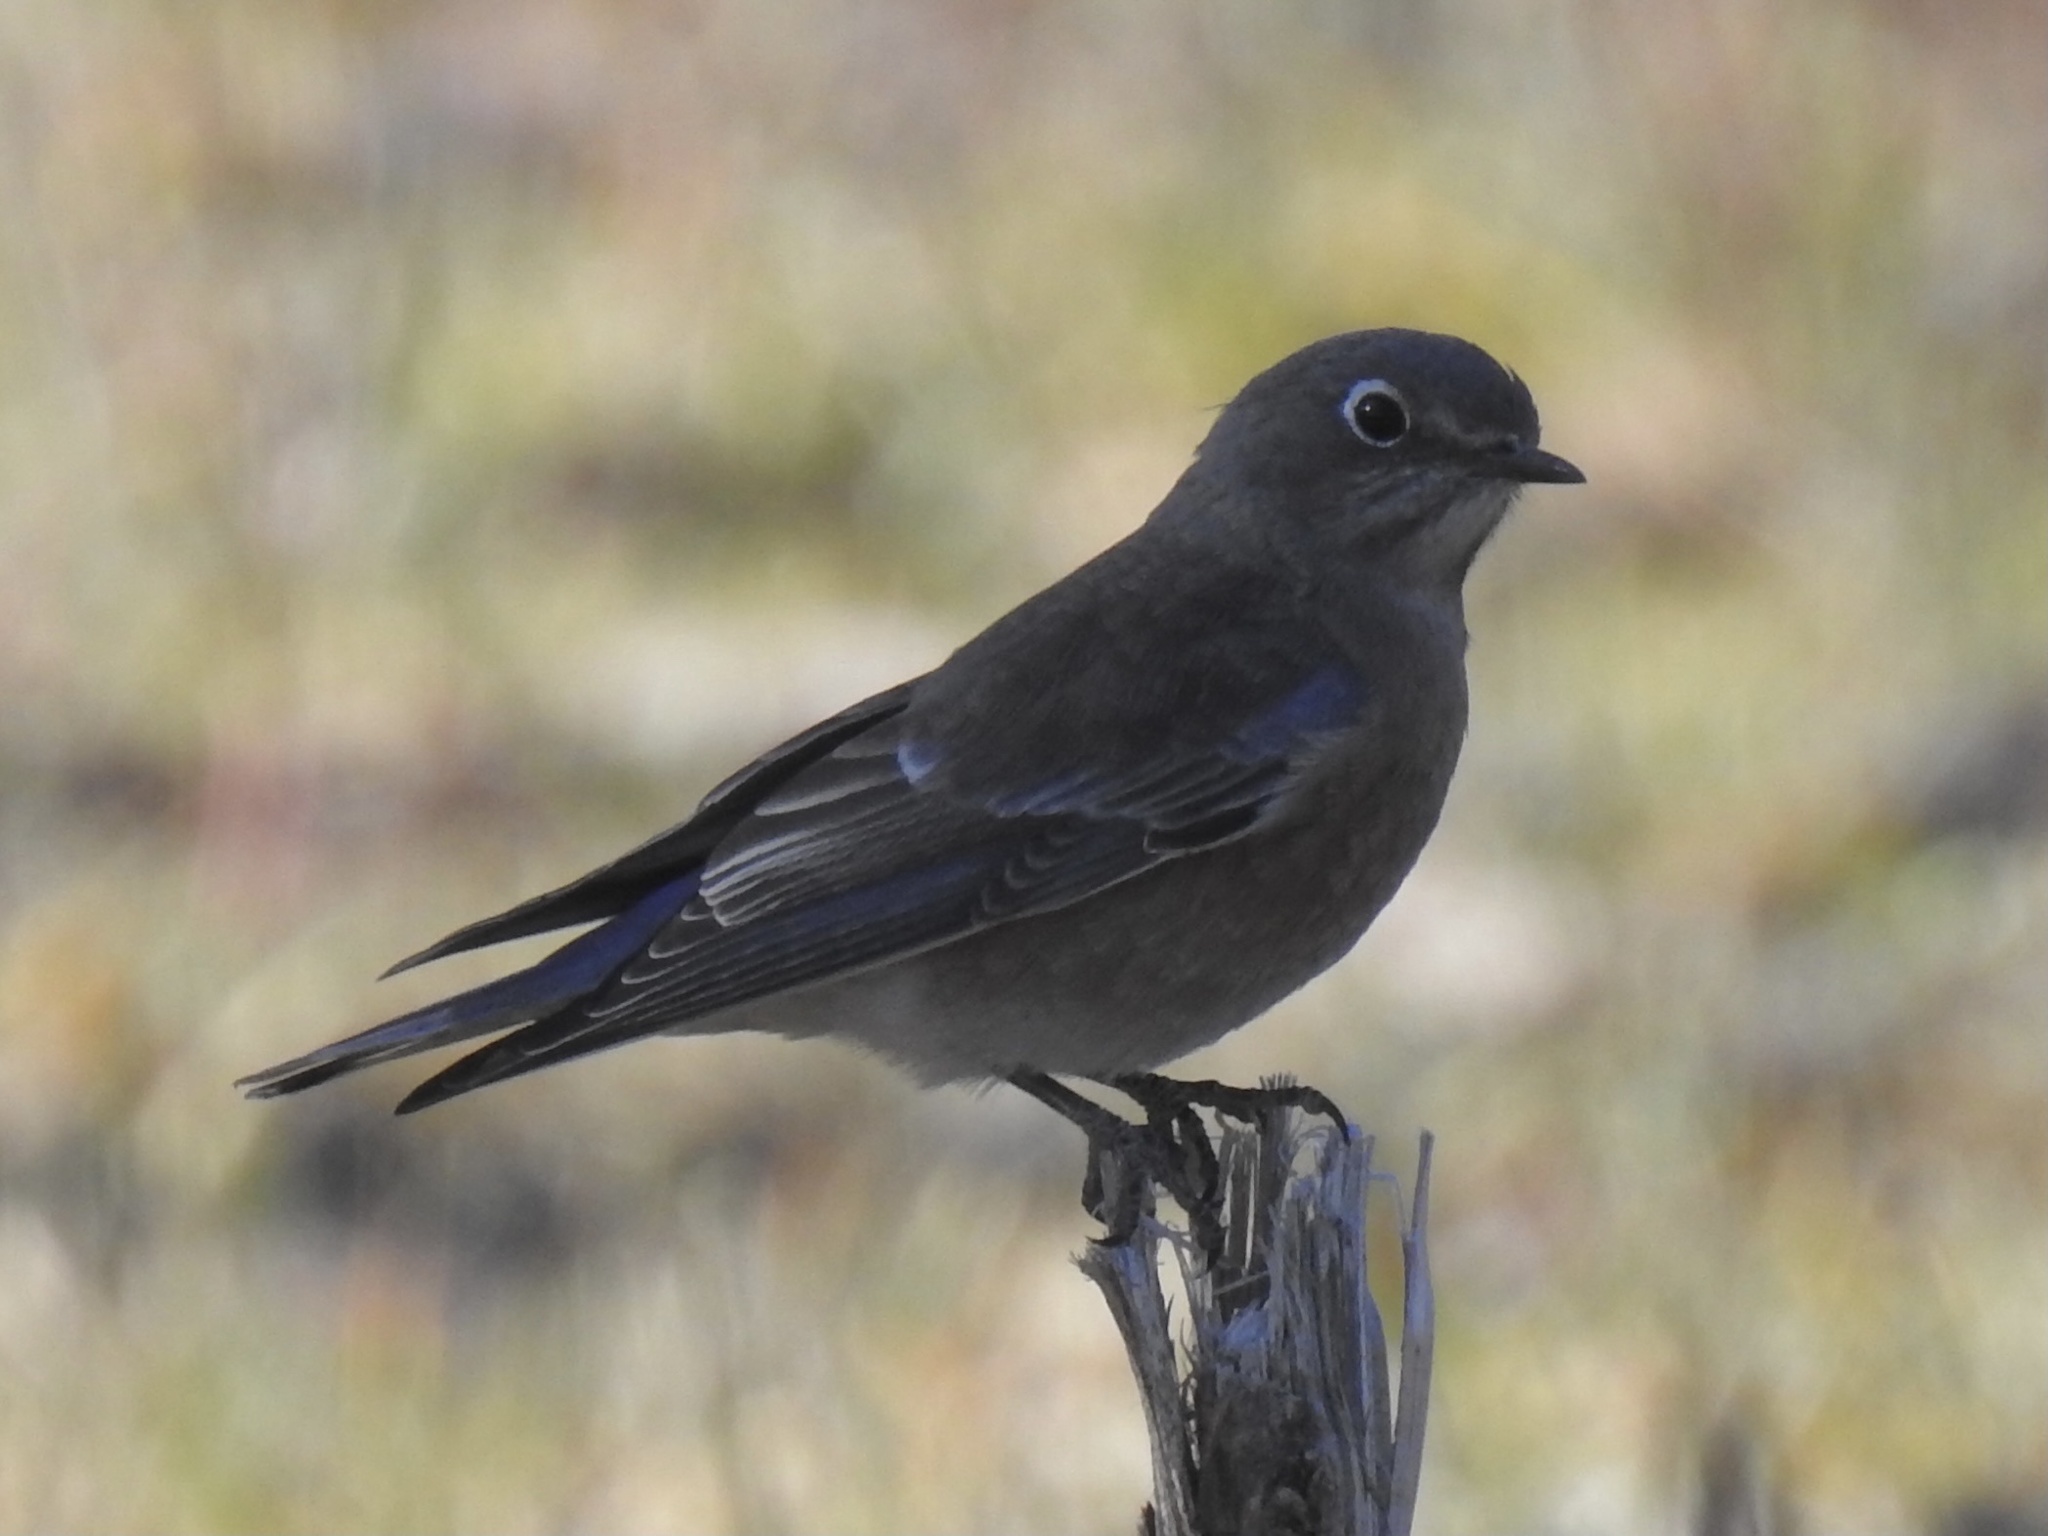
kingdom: Animalia
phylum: Chordata
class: Aves
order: Passeriformes
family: Turdidae
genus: Sialia
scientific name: Sialia currucoides
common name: Mountain bluebird
